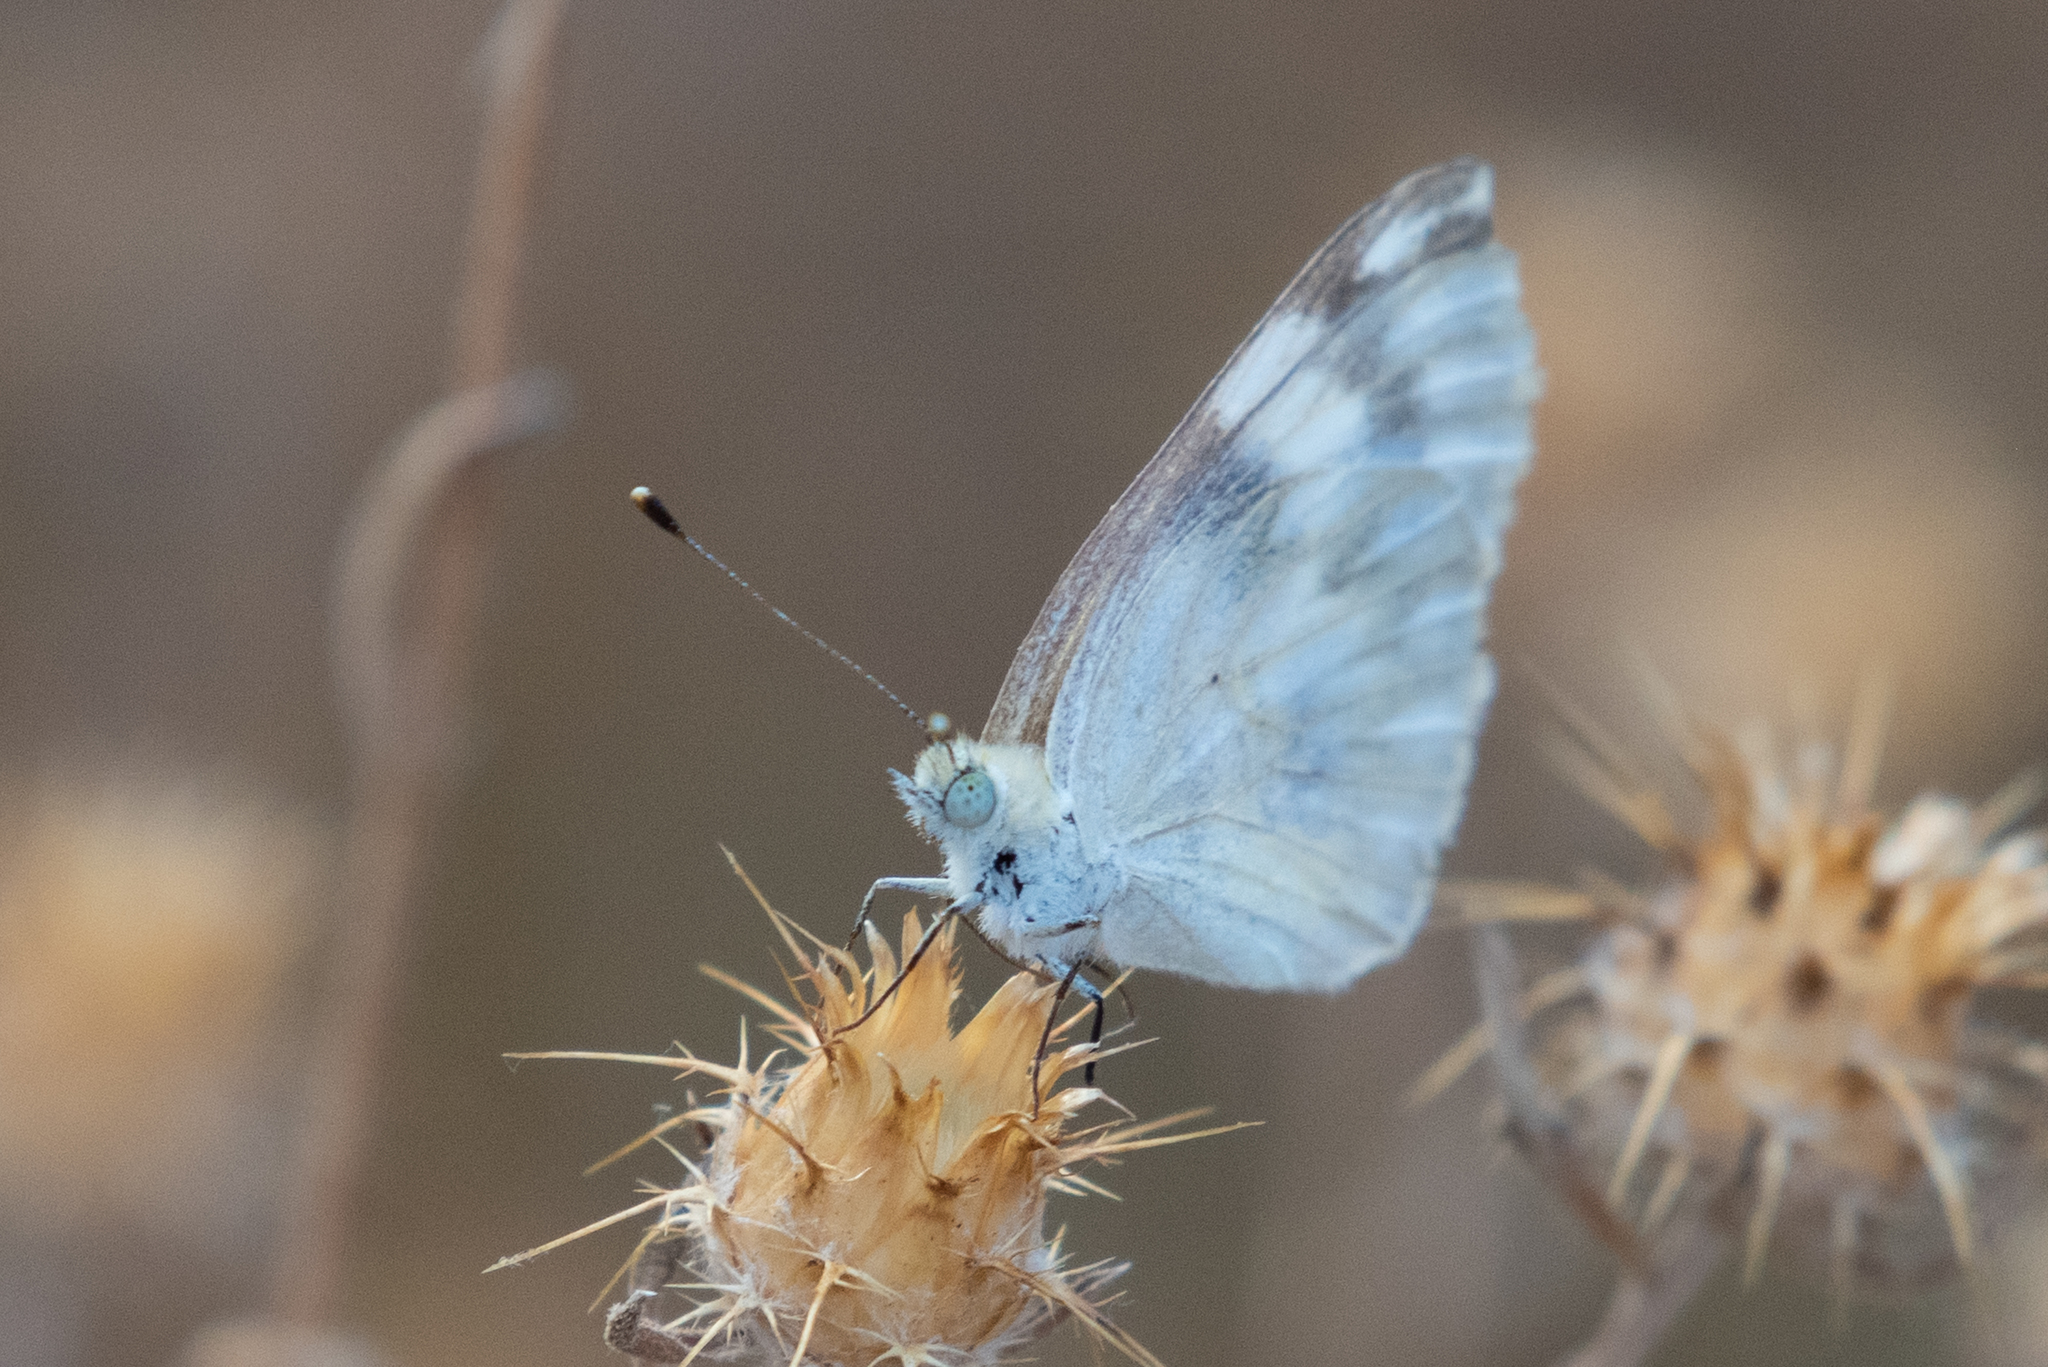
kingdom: Animalia
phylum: Arthropoda
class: Insecta
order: Lepidoptera
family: Pieridae
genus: Pontia
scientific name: Pontia protodice
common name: Checkered white
